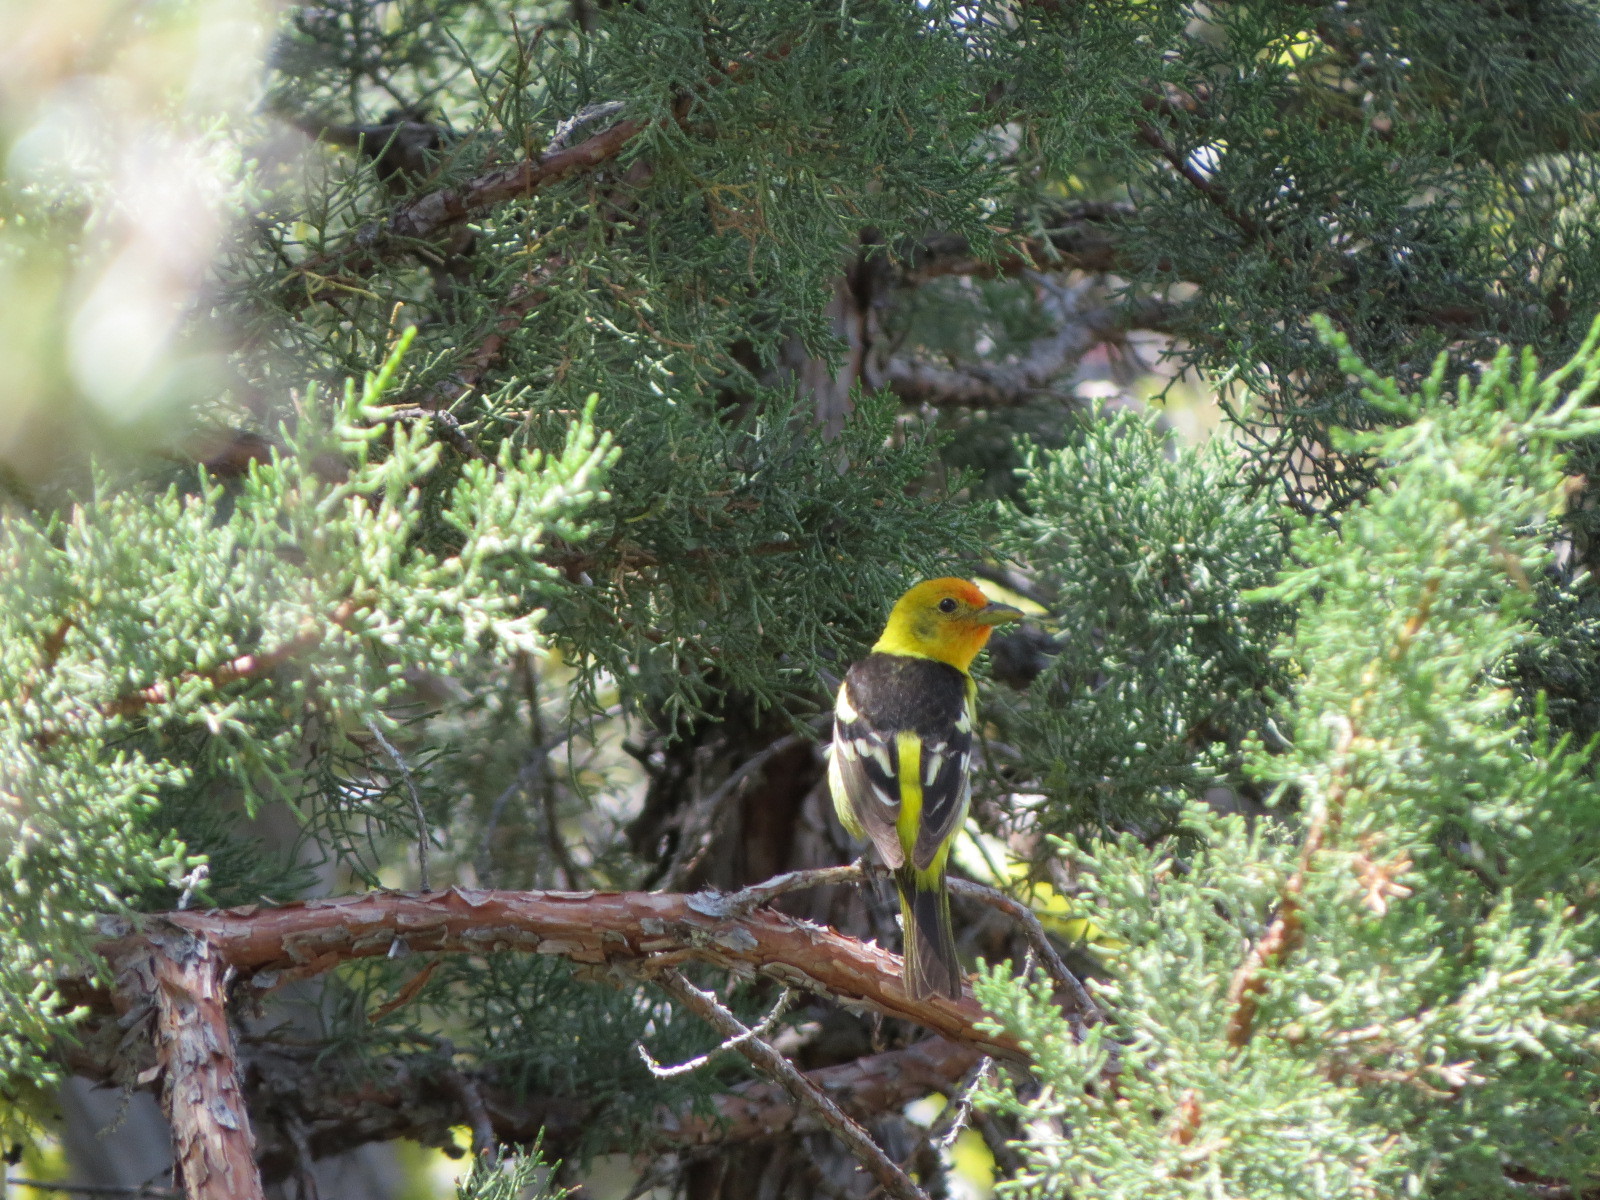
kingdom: Animalia
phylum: Chordata
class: Aves
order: Passeriformes
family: Cardinalidae
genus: Piranga
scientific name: Piranga ludoviciana
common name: Western tanager
